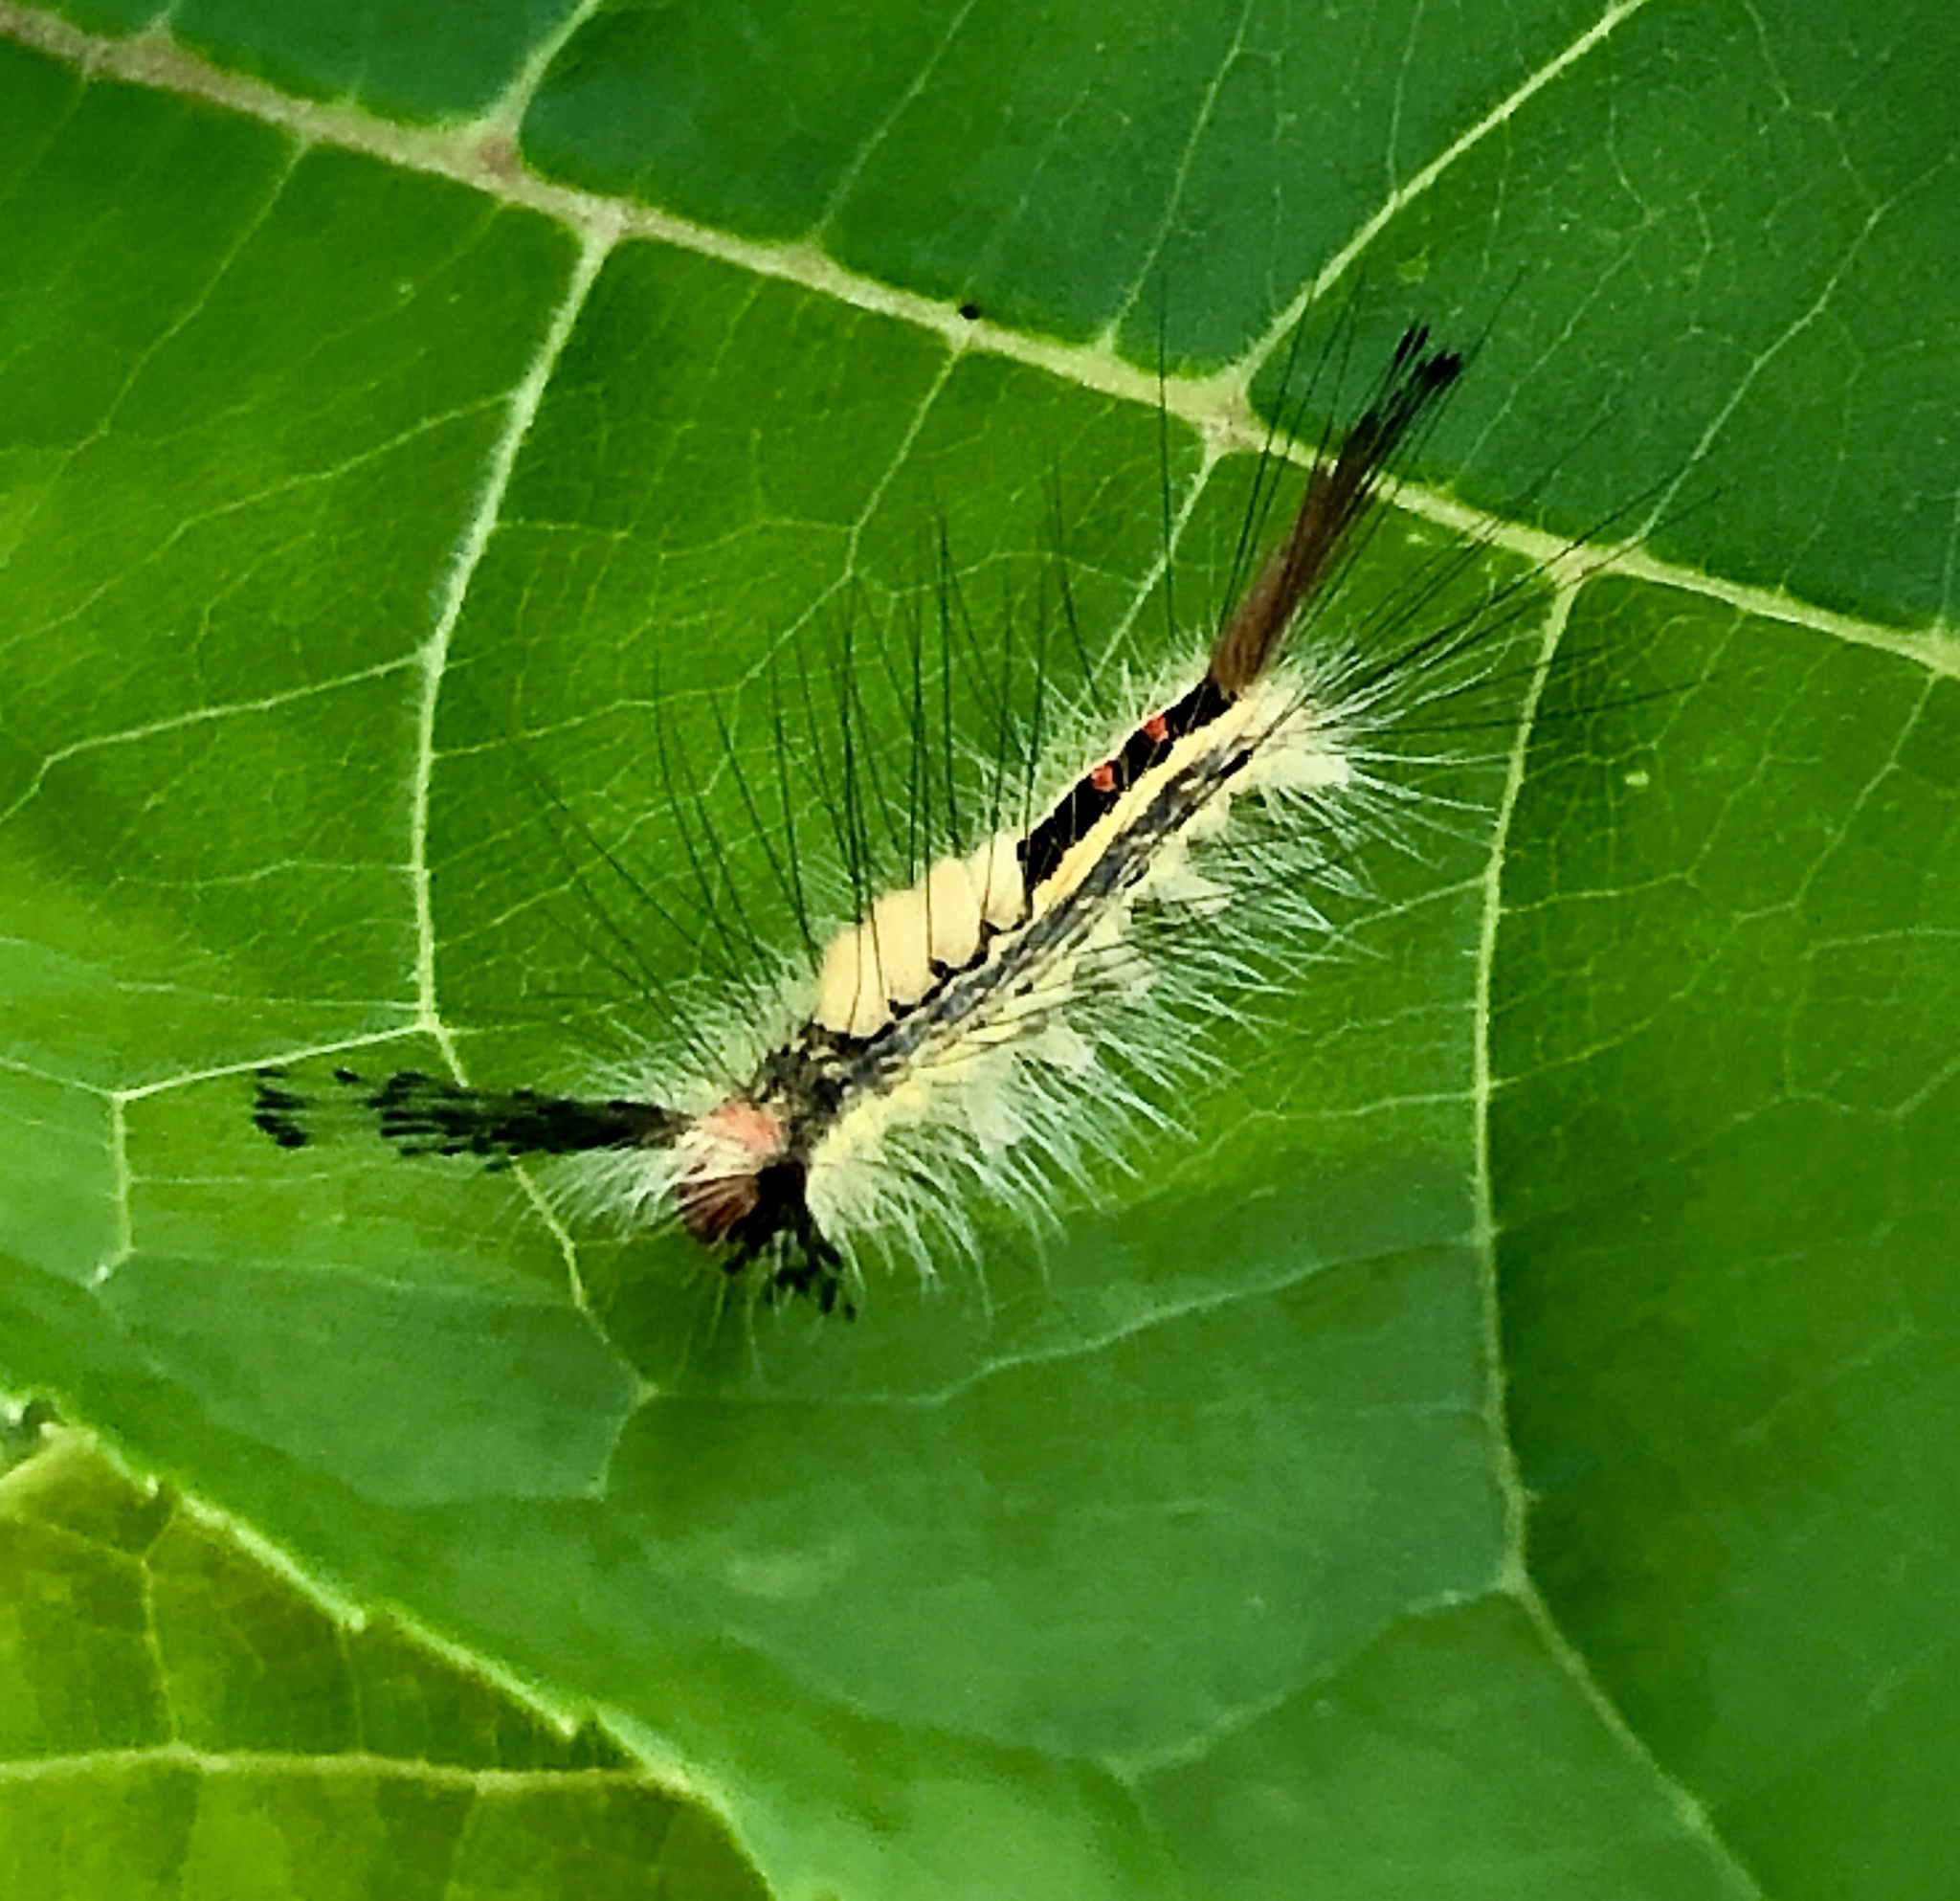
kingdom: Animalia
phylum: Arthropoda
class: Insecta
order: Lepidoptera
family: Erebidae
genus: Orgyia
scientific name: Orgyia leucostigma
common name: White-marked tussock moth
